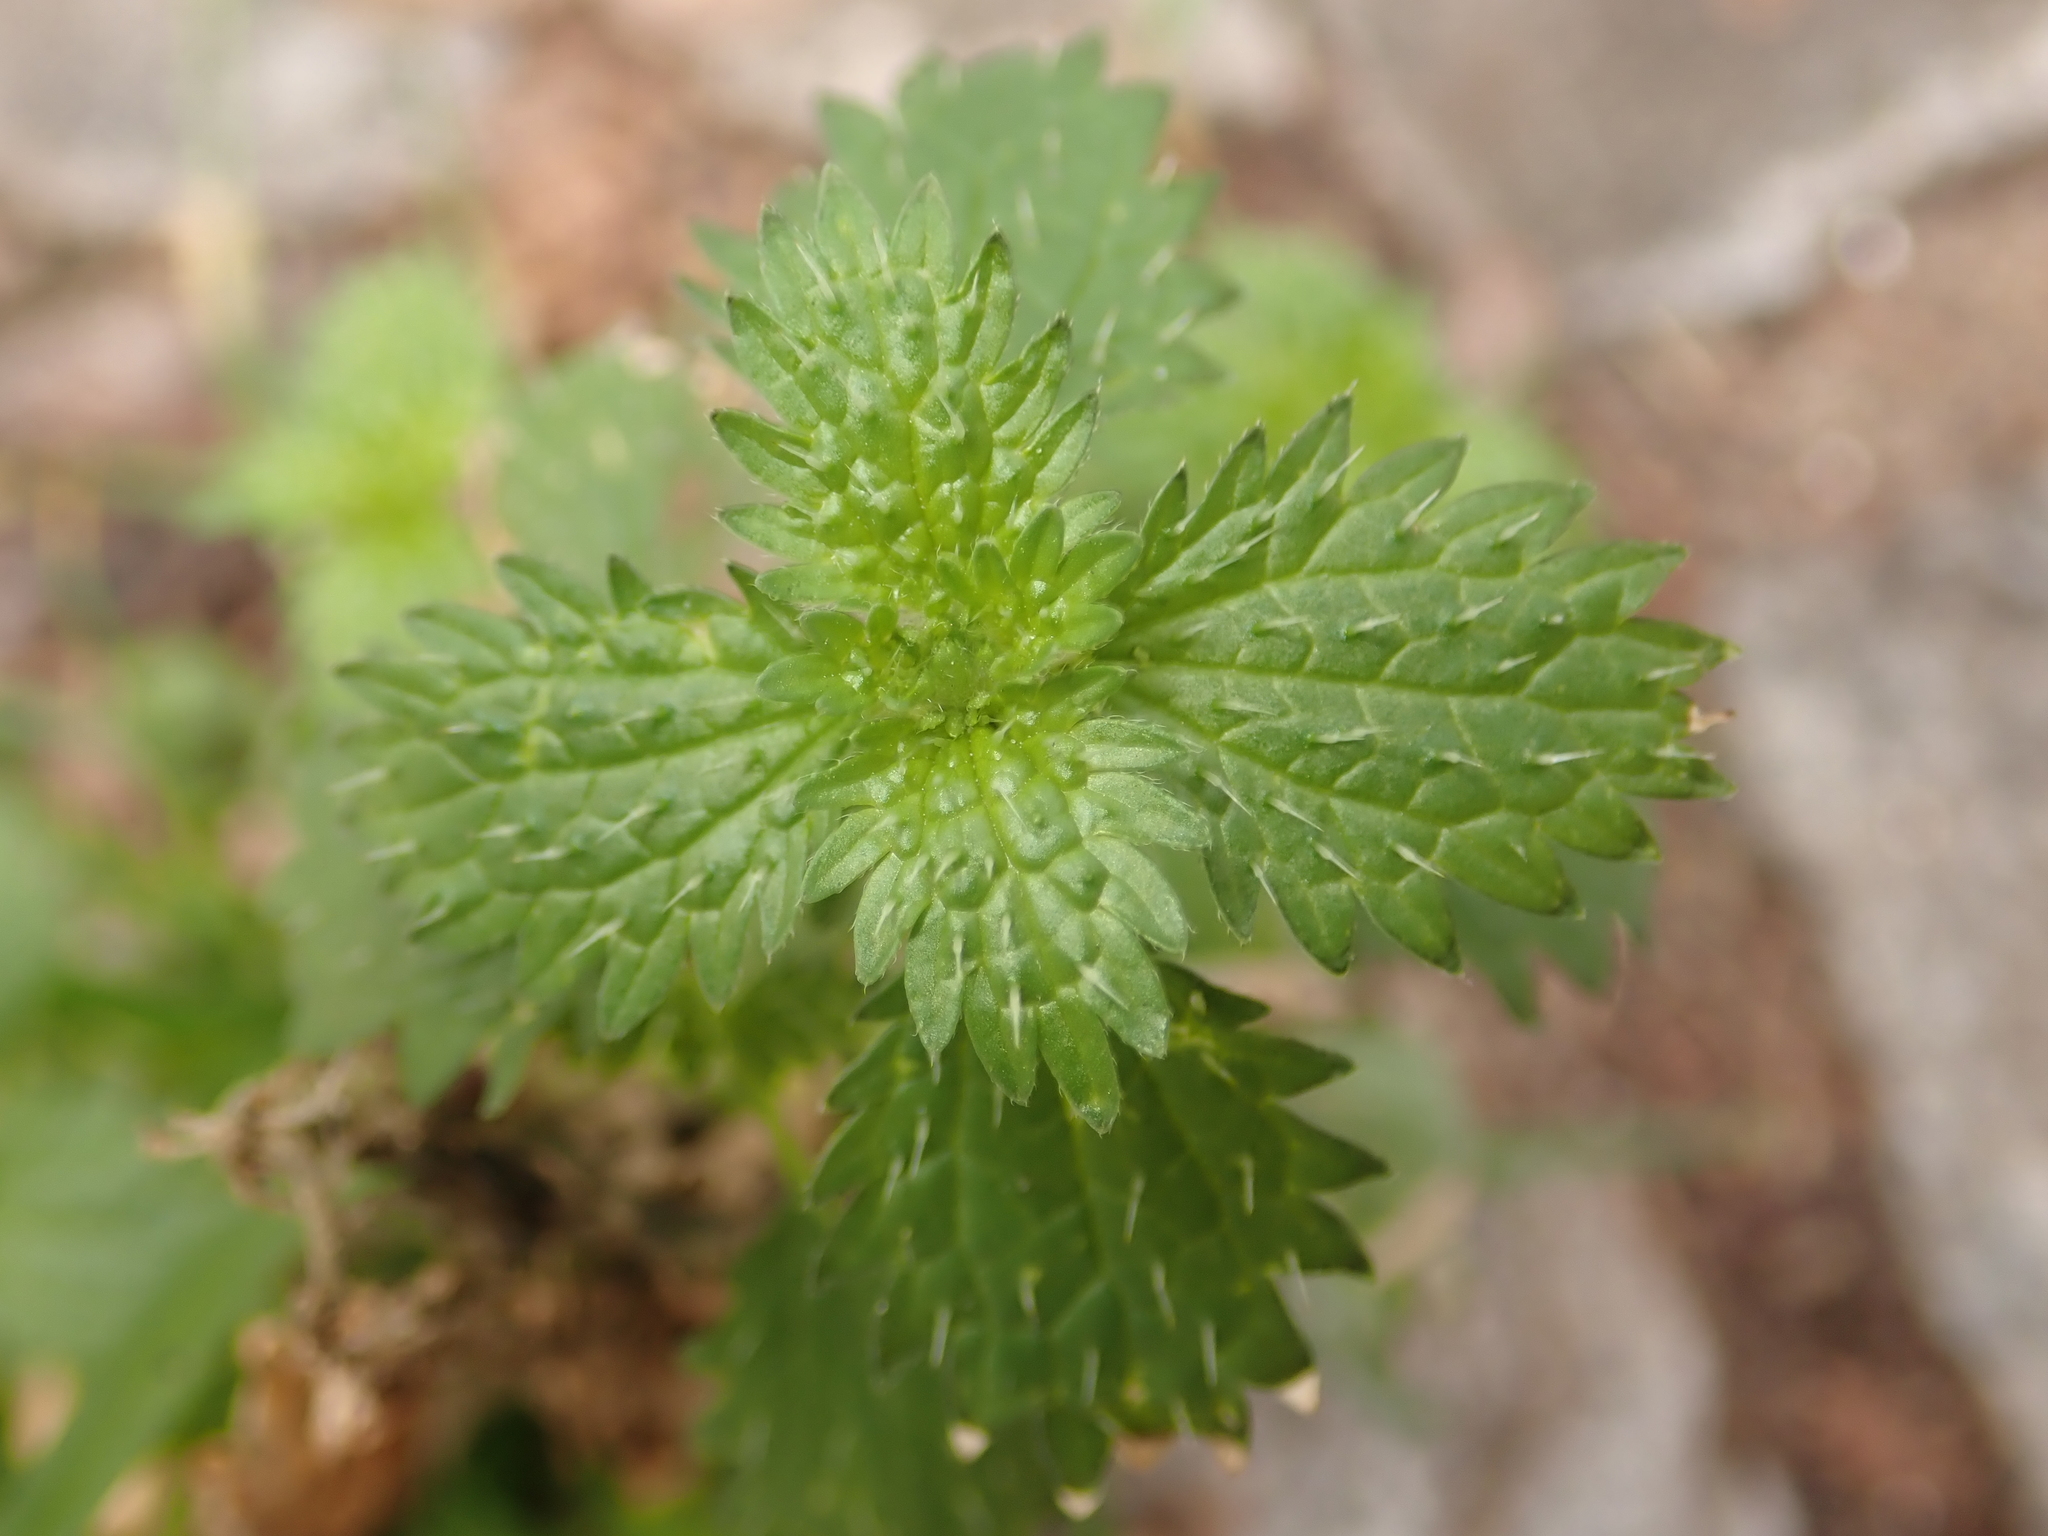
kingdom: Plantae
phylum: Tracheophyta
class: Magnoliopsida
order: Rosales
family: Urticaceae
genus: Urtica
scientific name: Urtica urens
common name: Dwarf nettle
